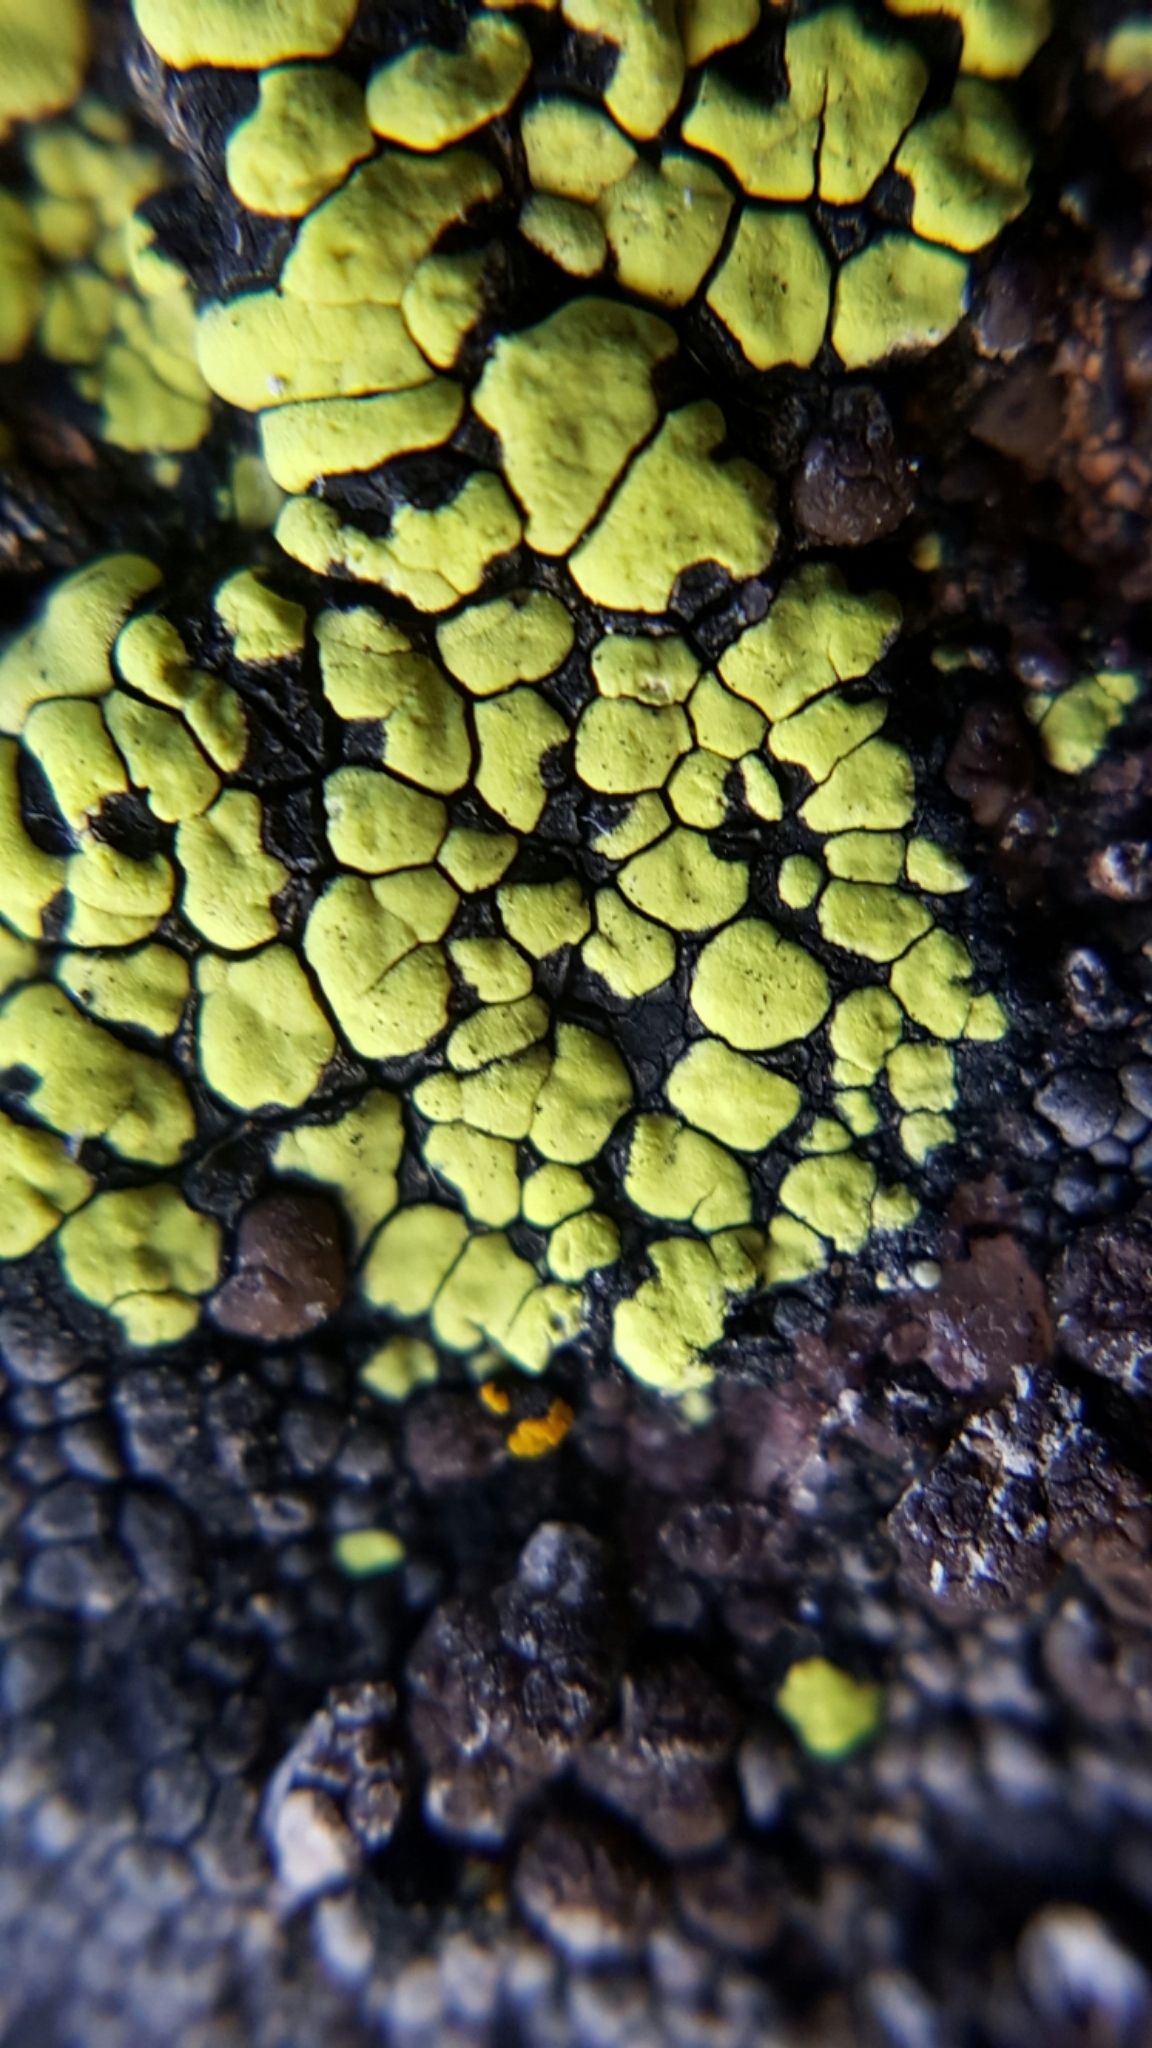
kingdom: Fungi
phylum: Ascomycota
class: Lecanoromycetes
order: Rhizocarpales
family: Rhizocarpaceae
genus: Rhizocarpon
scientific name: Rhizocarpon geographicum
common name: Yellow map lichen
